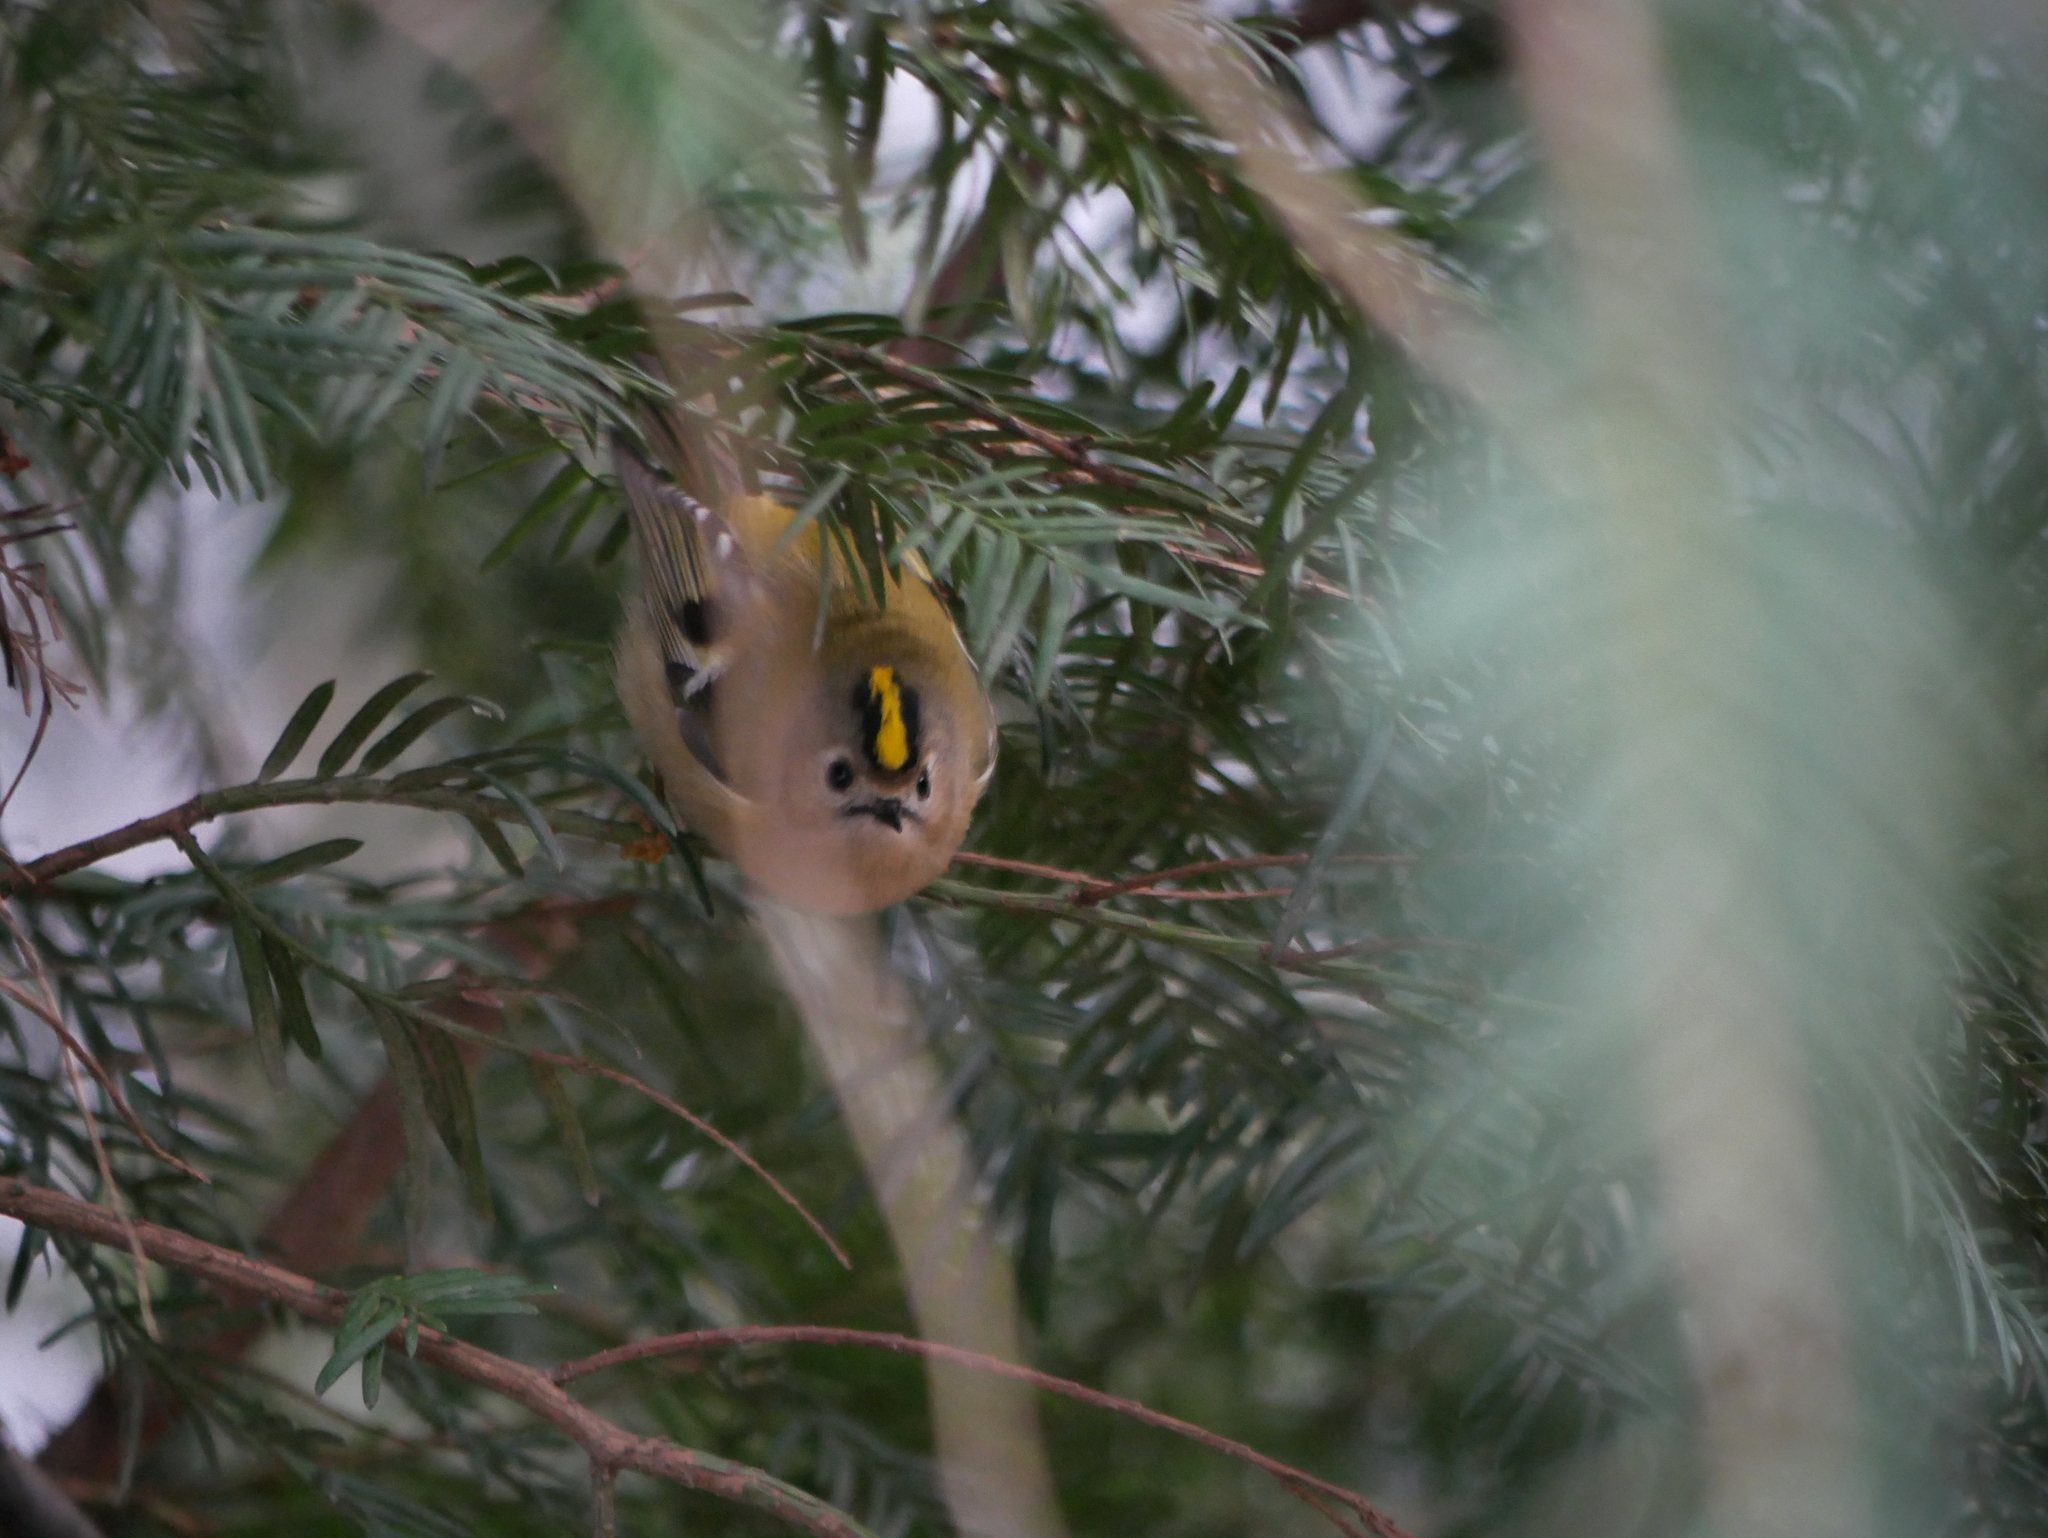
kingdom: Animalia
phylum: Chordata
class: Aves
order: Passeriformes
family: Regulidae
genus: Regulus
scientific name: Regulus regulus
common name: Goldcrest
